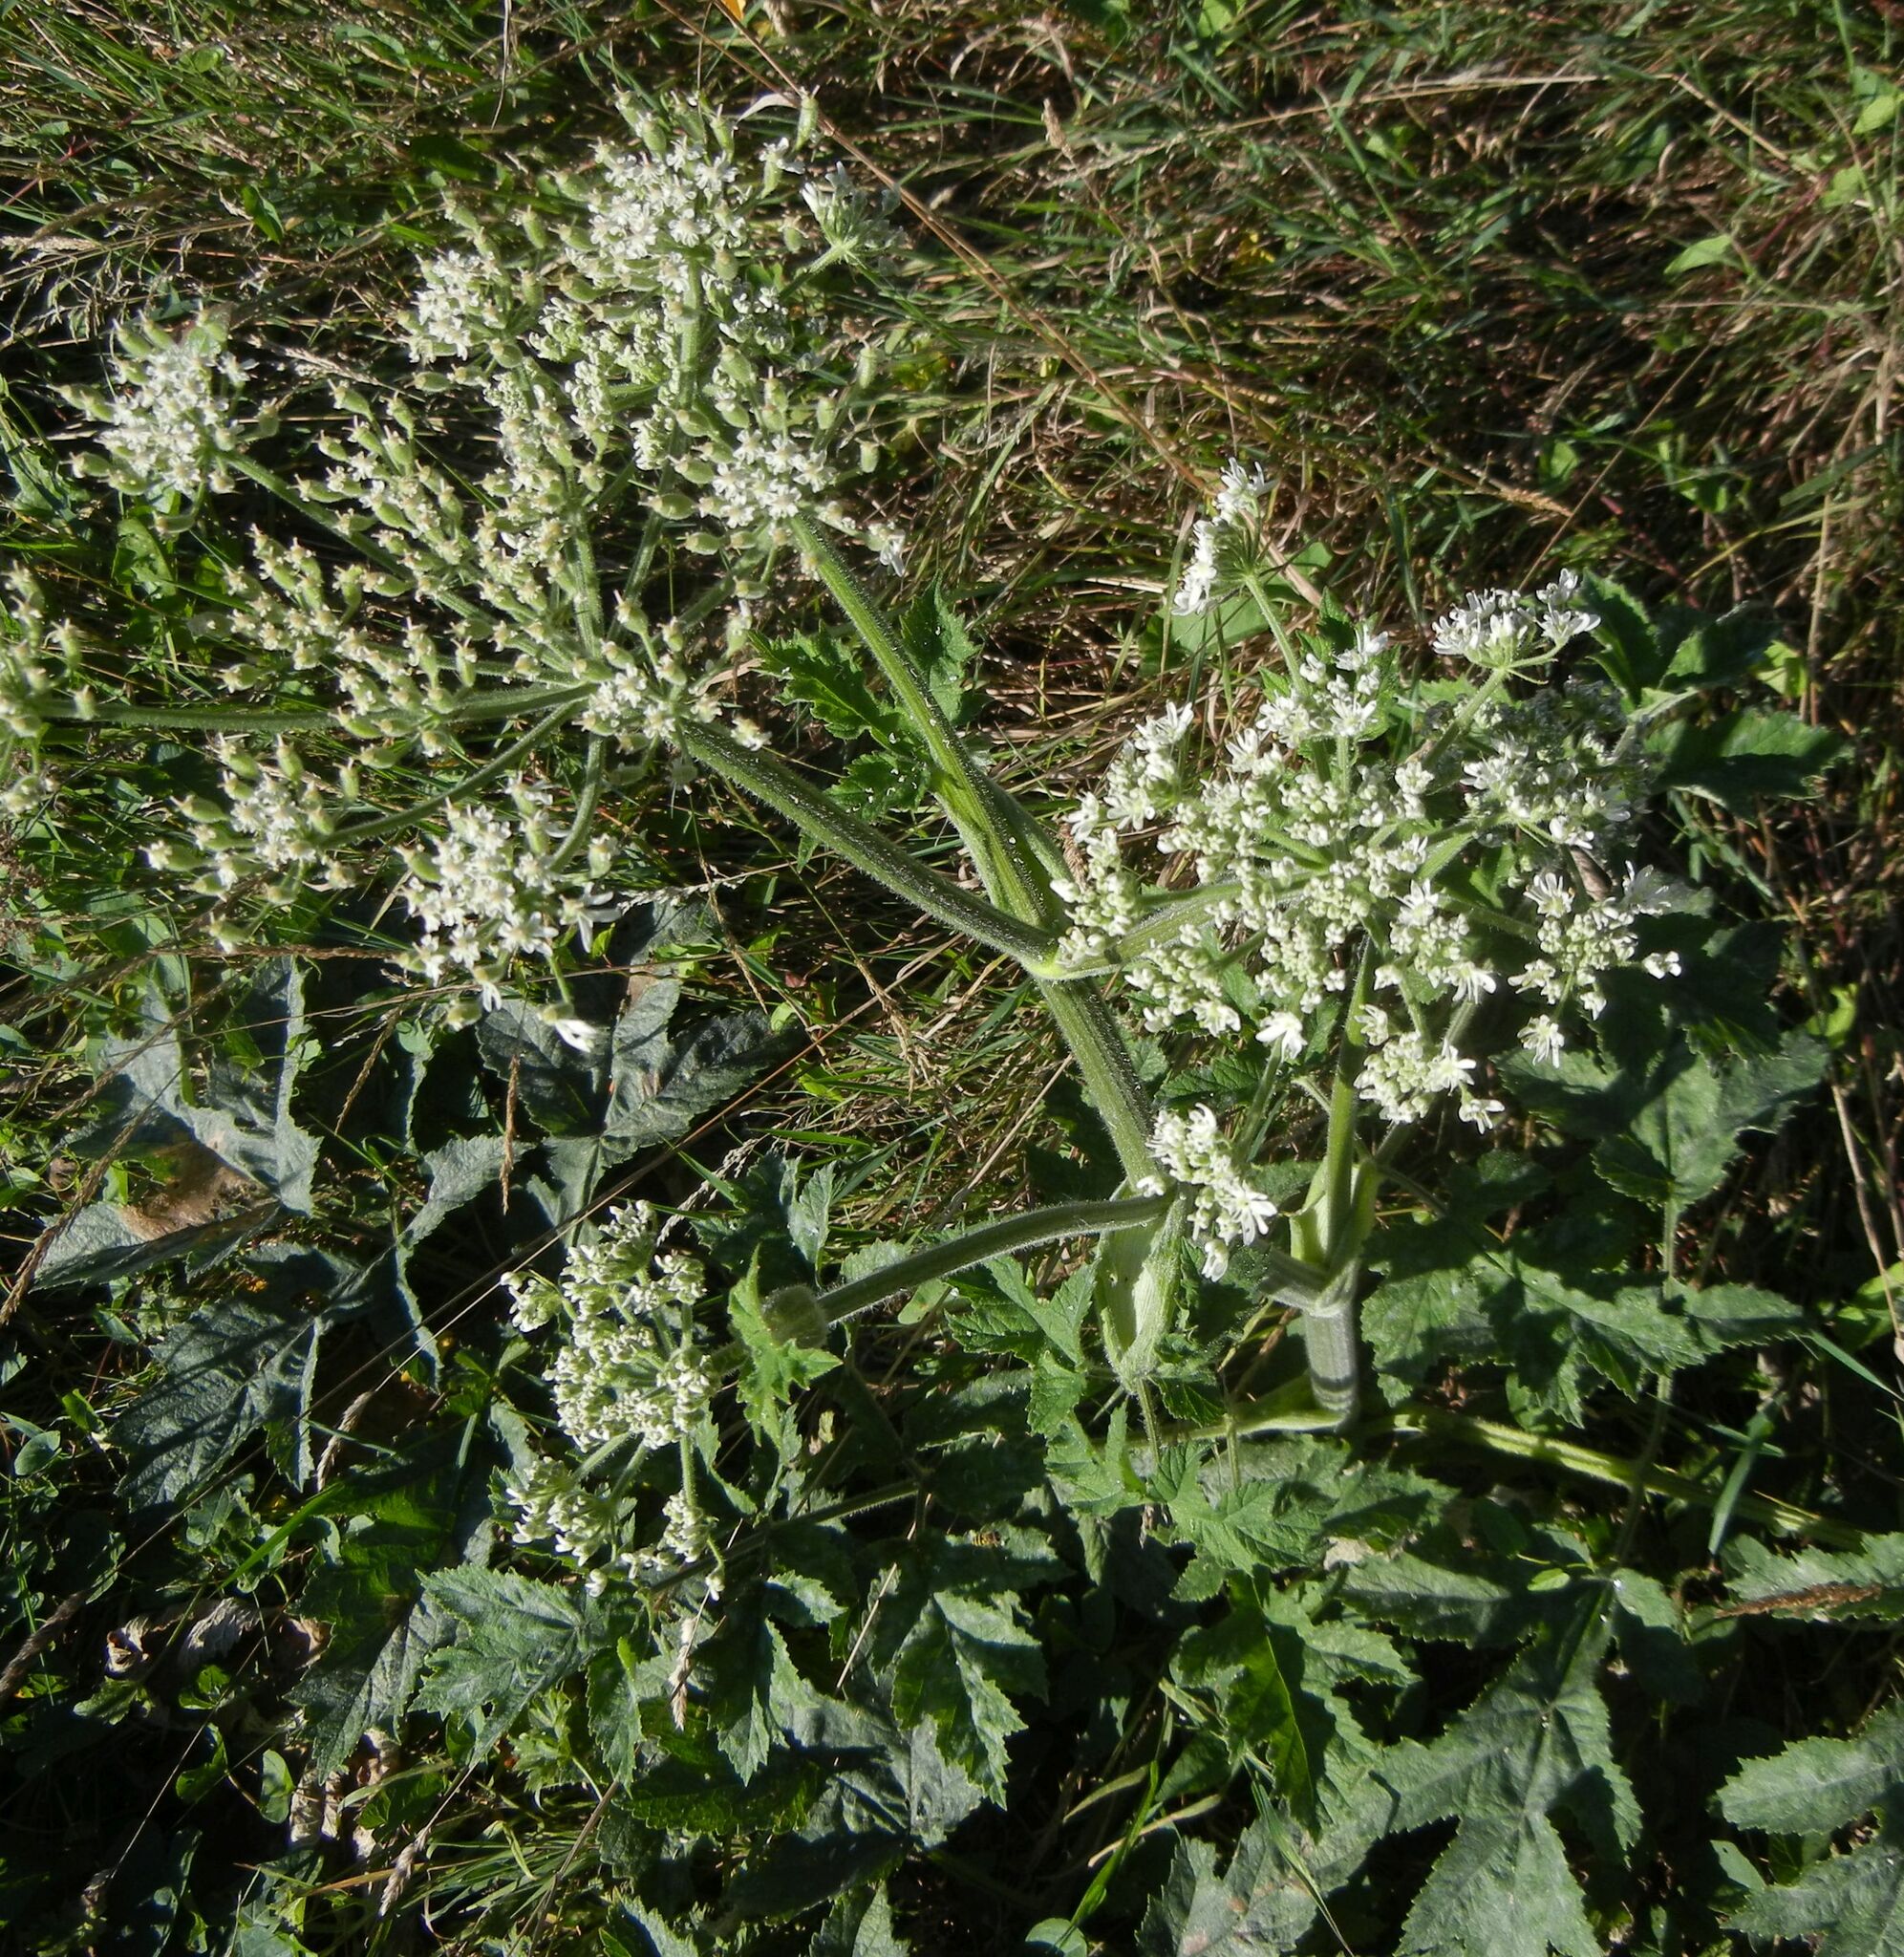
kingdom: Plantae
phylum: Tracheophyta
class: Magnoliopsida
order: Apiales
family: Apiaceae
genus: Heracleum
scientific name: Heracleum sphondylium
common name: Hogweed
